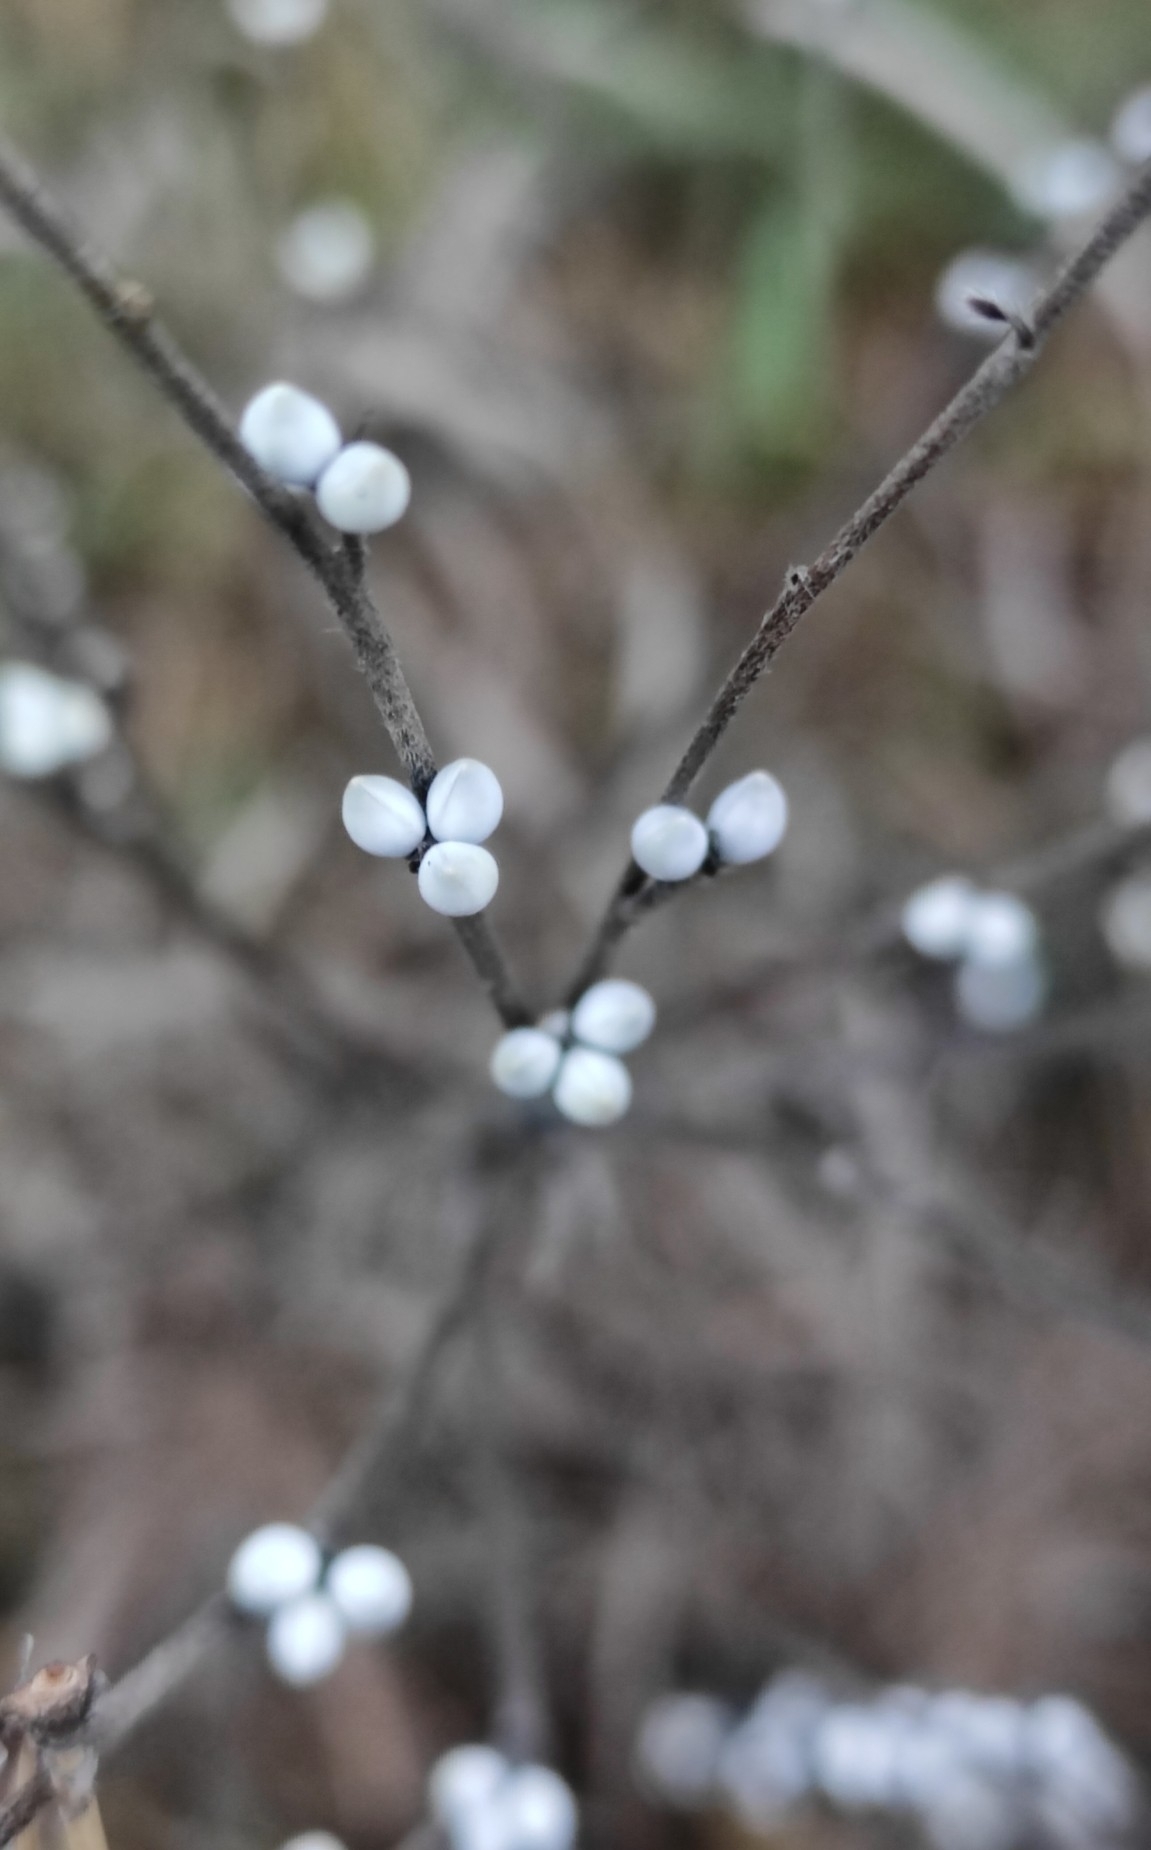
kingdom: Plantae
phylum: Tracheophyta
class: Magnoliopsida
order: Boraginales
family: Boraginaceae
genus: Lithospermum
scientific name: Lithospermum officinale
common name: Common gromwell
